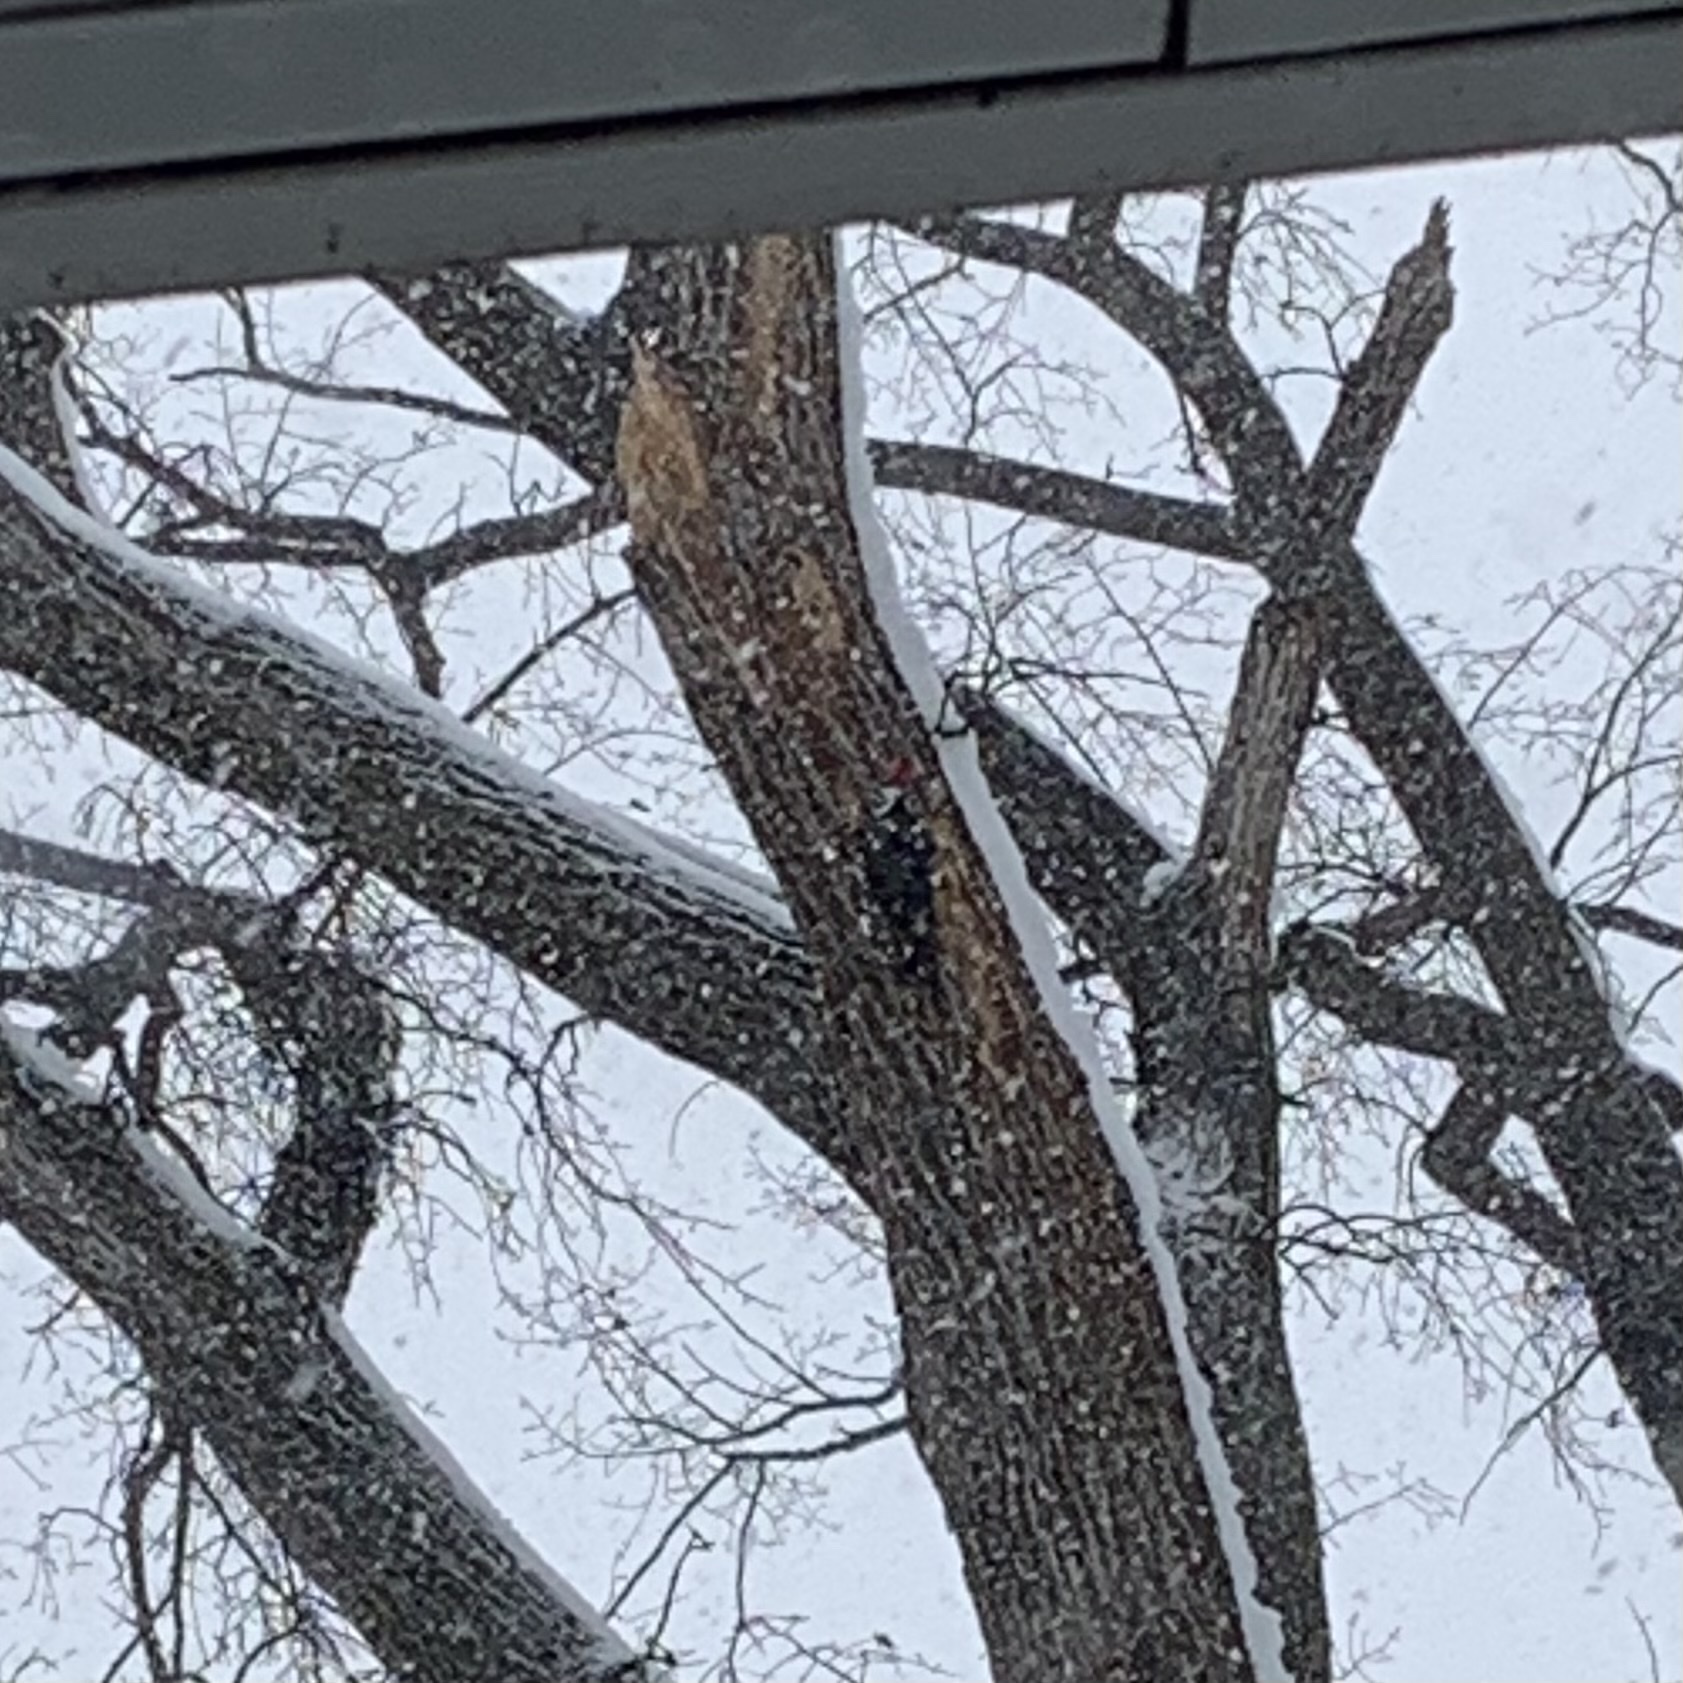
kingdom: Animalia
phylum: Chordata
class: Aves
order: Piciformes
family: Picidae
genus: Dryocopus
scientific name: Dryocopus pileatus
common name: Pileated woodpecker
